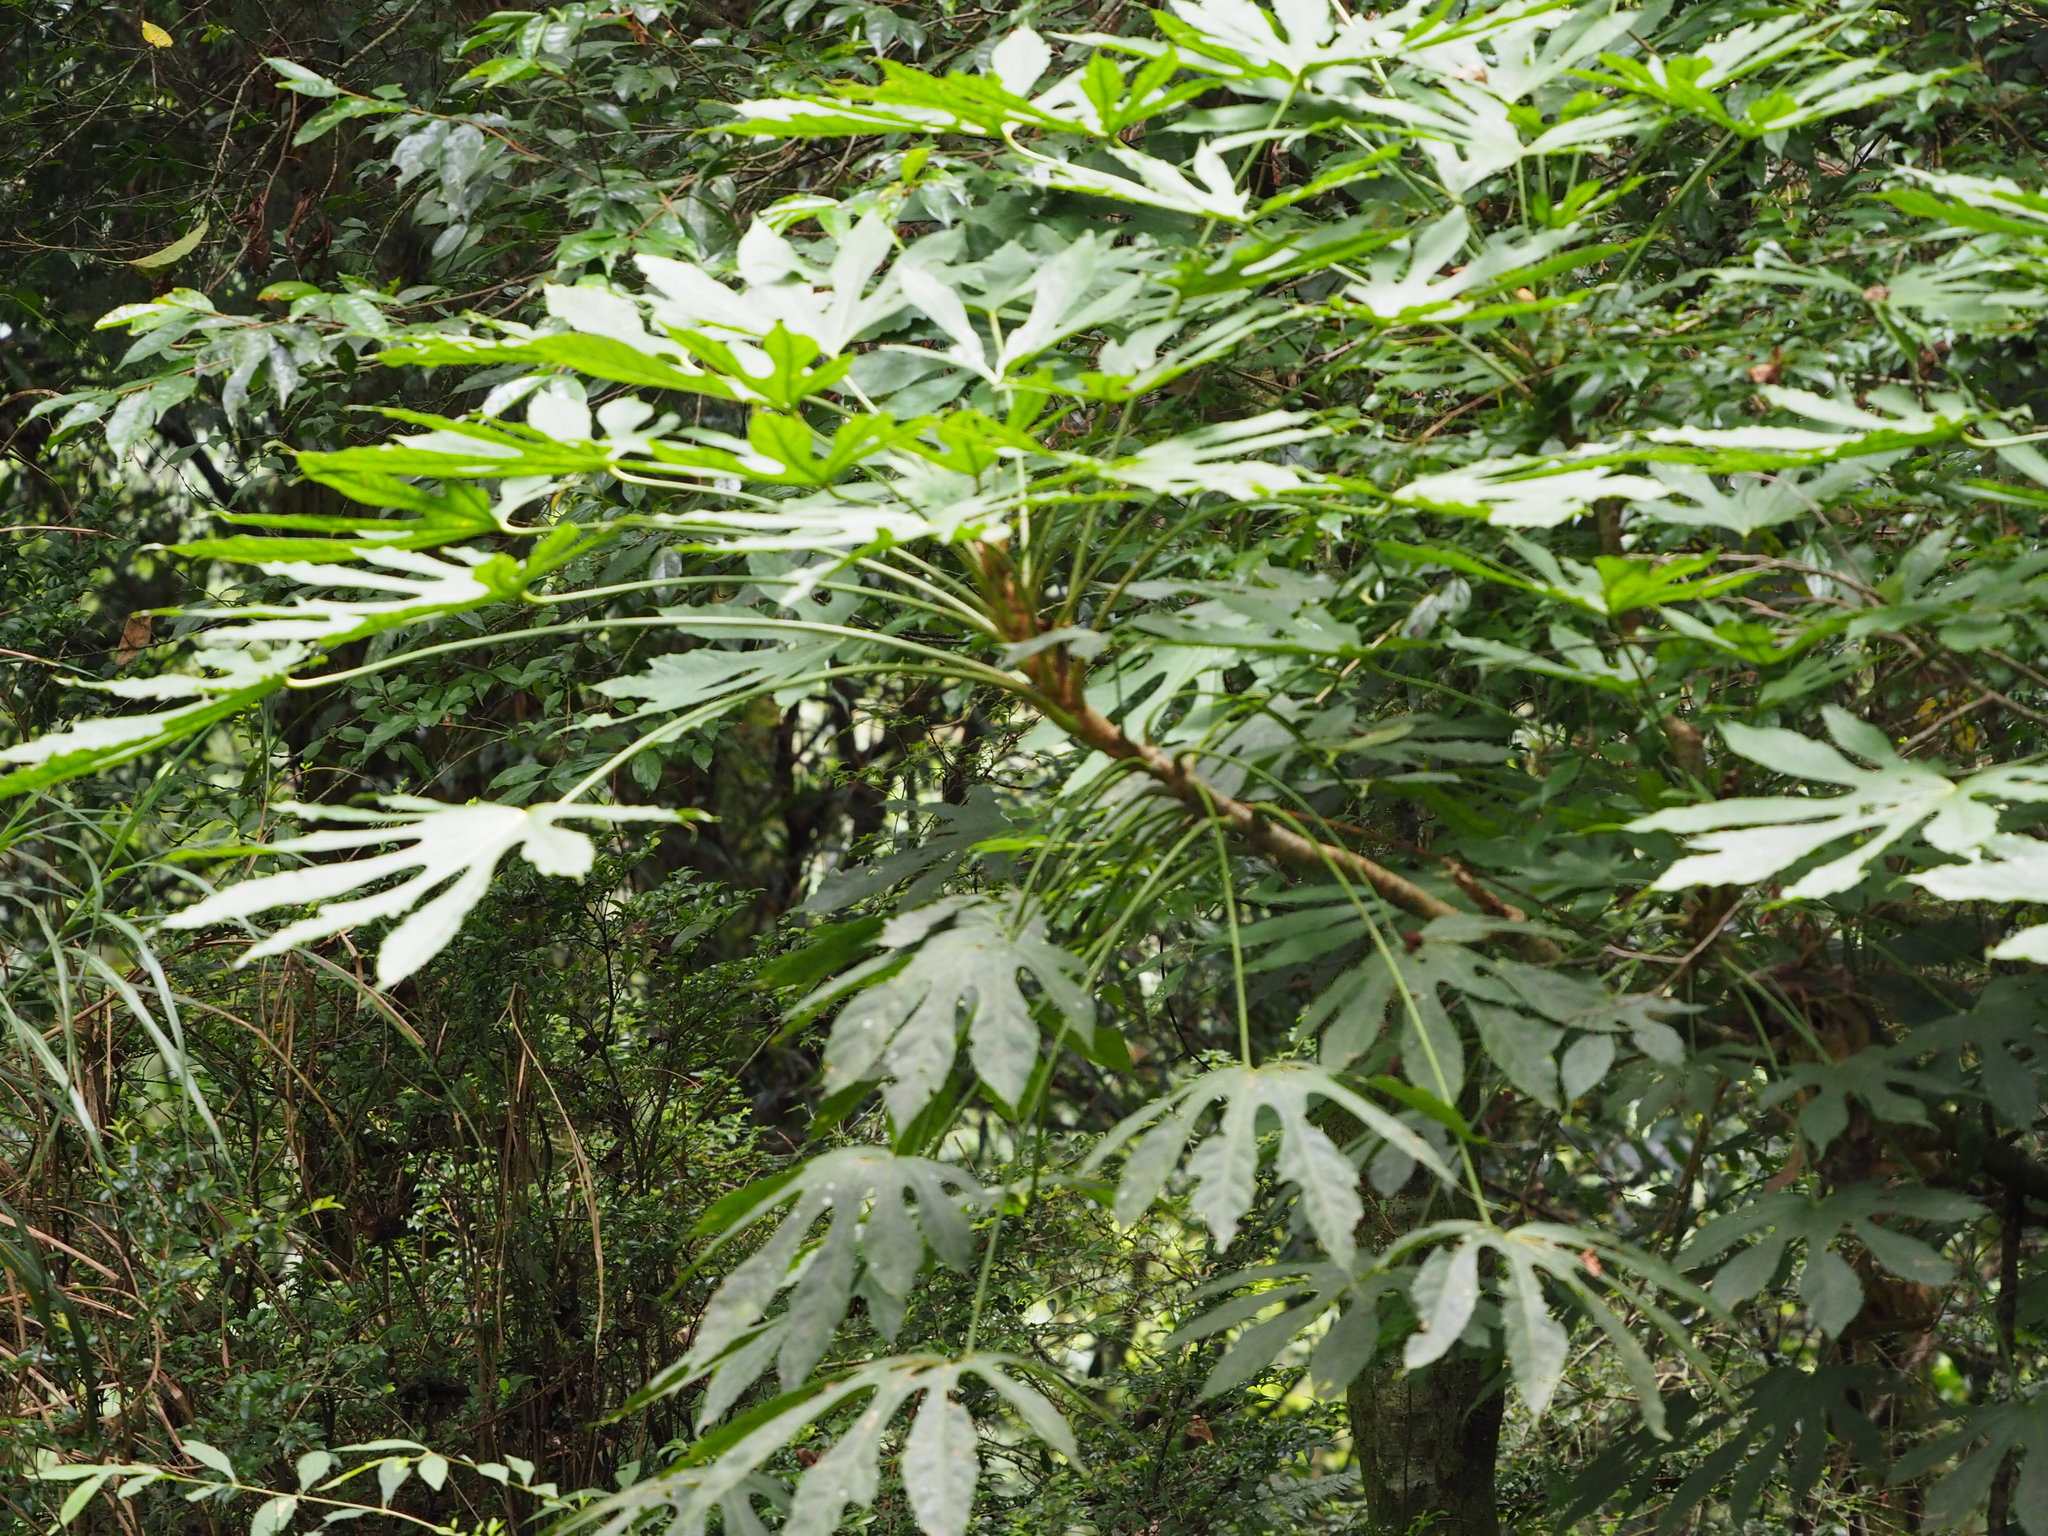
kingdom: Plantae
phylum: Tracheophyta
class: Magnoliopsida
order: Apiales
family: Araliaceae
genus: Fatsia
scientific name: Fatsia polycarpa
